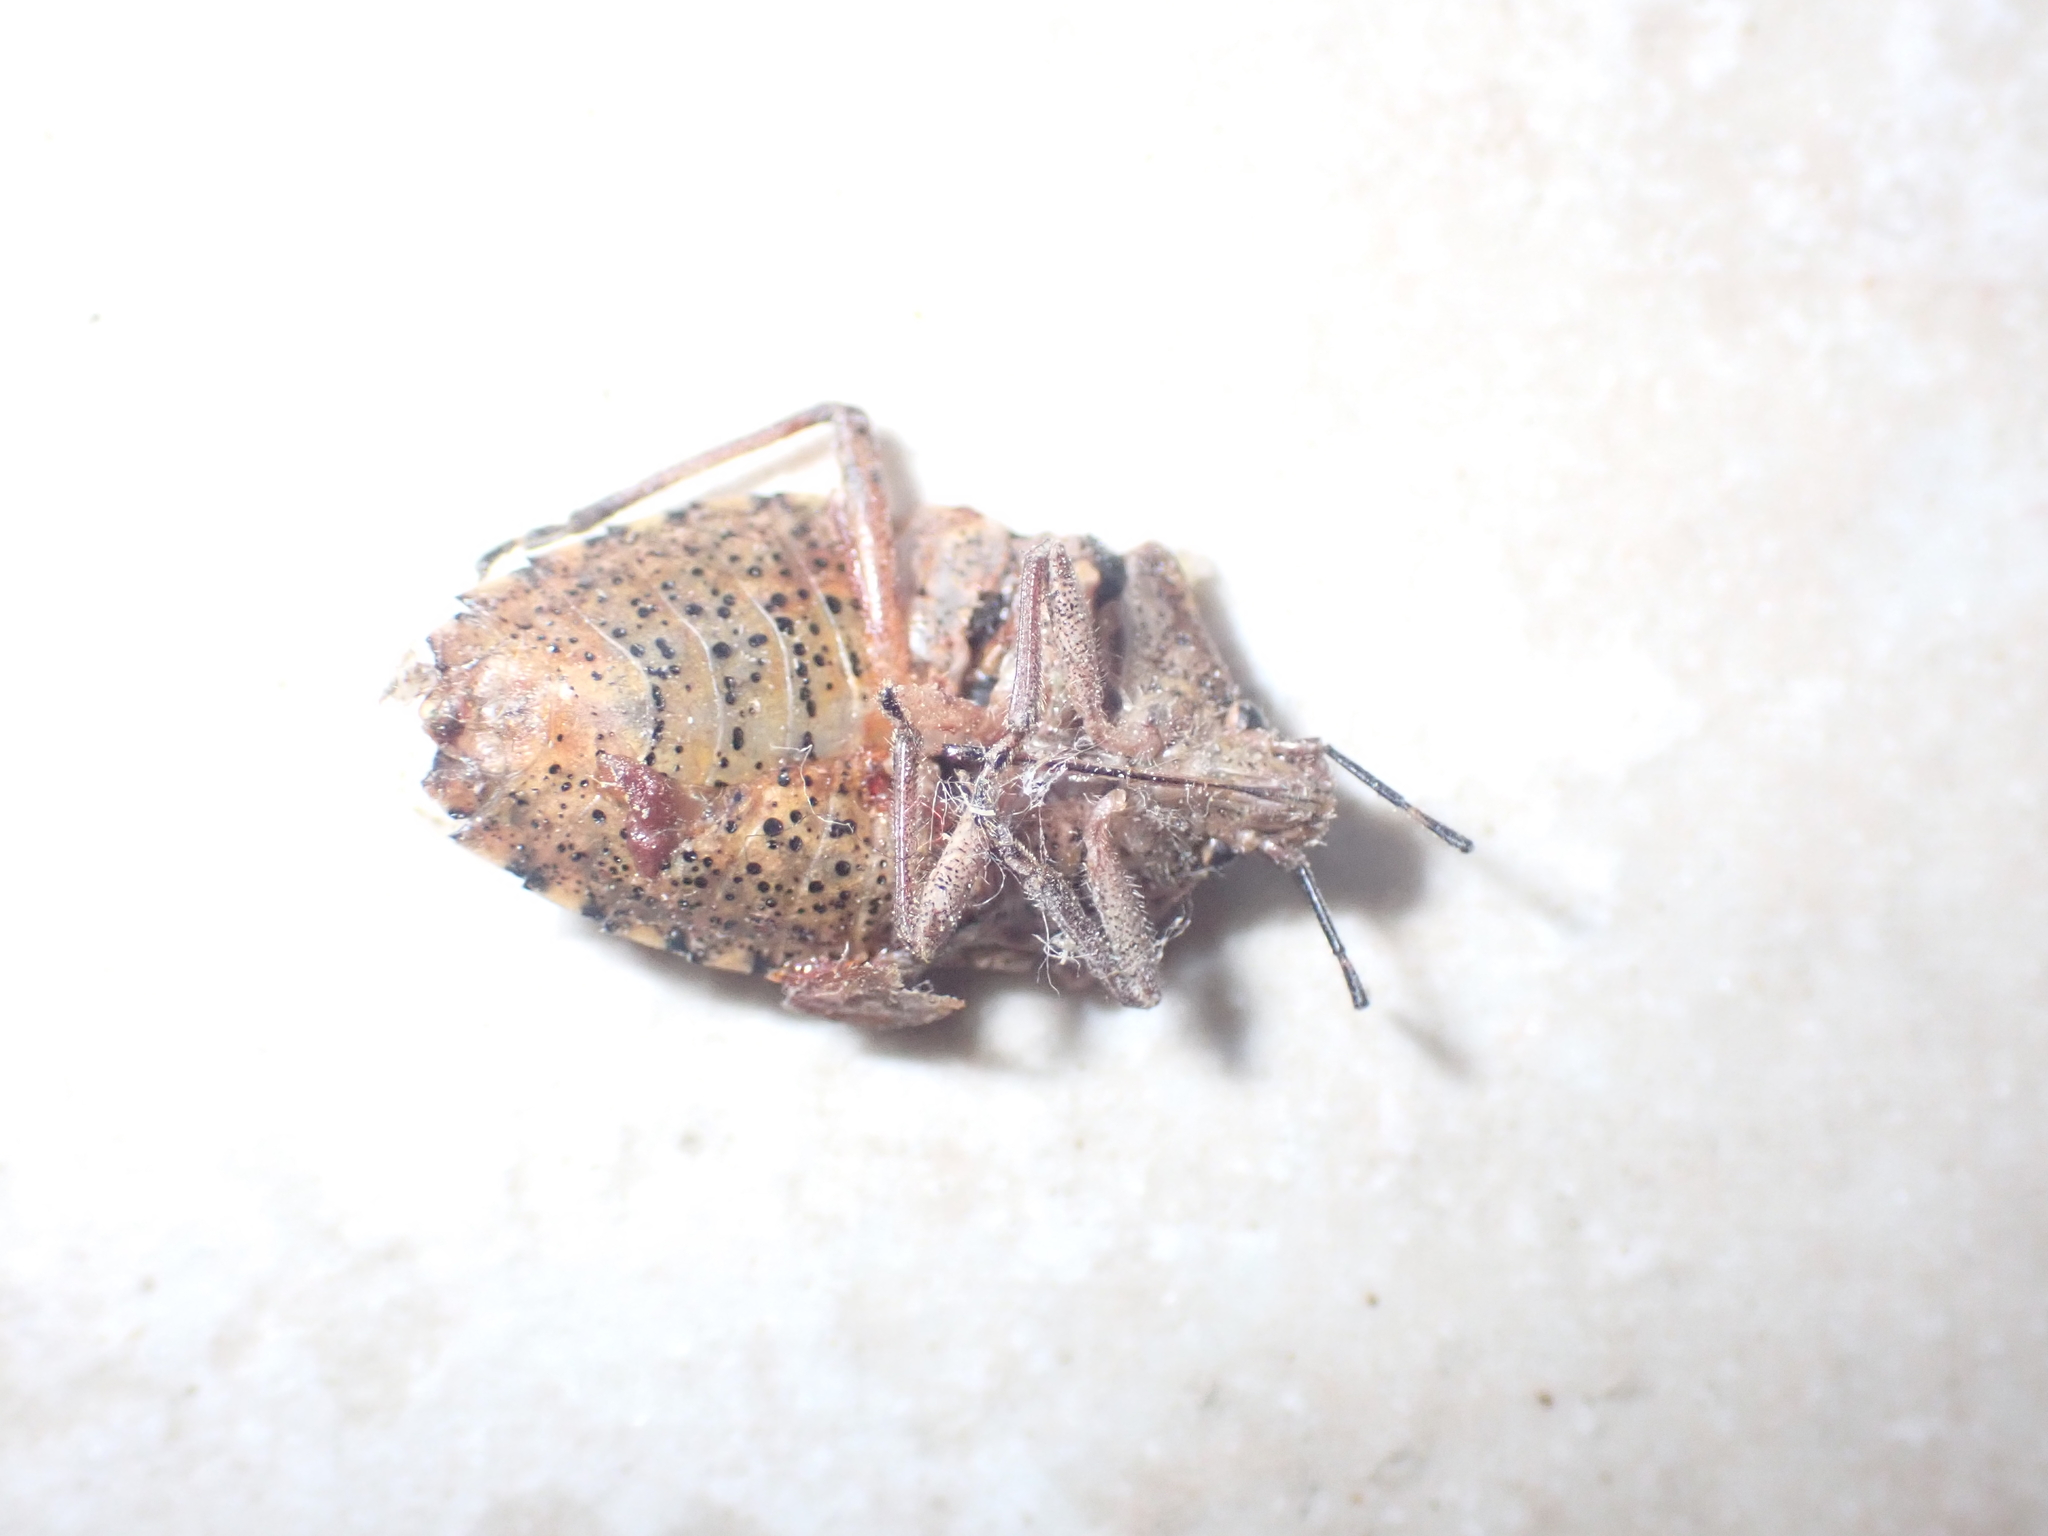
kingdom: Animalia
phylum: Arthropoda
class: Insecta
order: Hemiptera
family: Pentatomidae
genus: Rhaphigaster
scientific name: Rhaphigaster nebulosa
